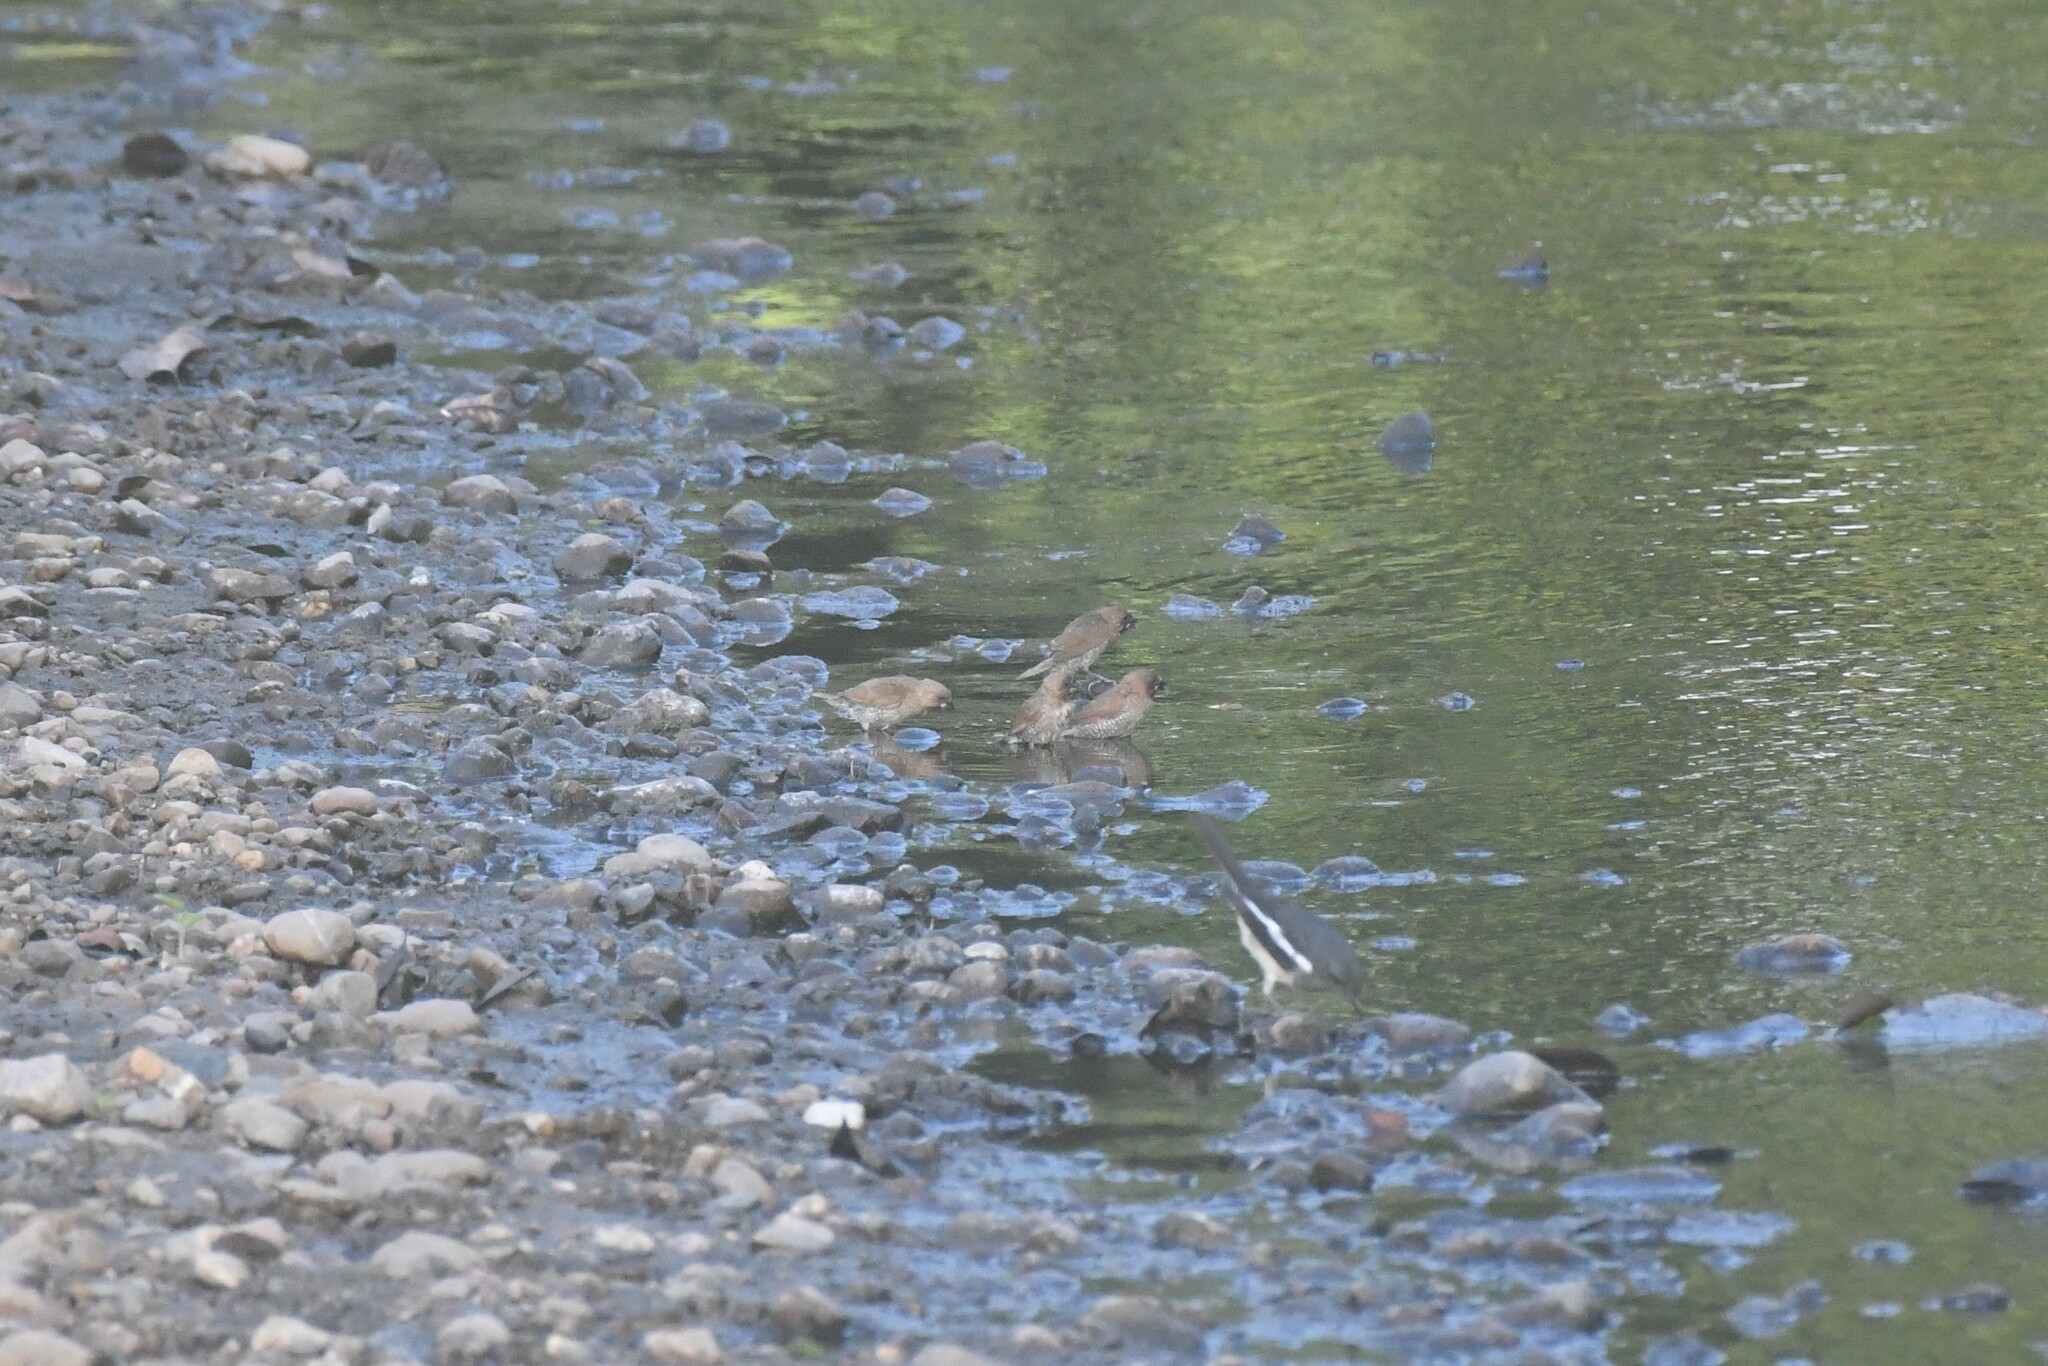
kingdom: Animalia
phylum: Chordata
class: Aves
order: Passeriformes
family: Estrildidae
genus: Lonchura
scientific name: Lonchura punctulata
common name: Scaly-breasted munia
